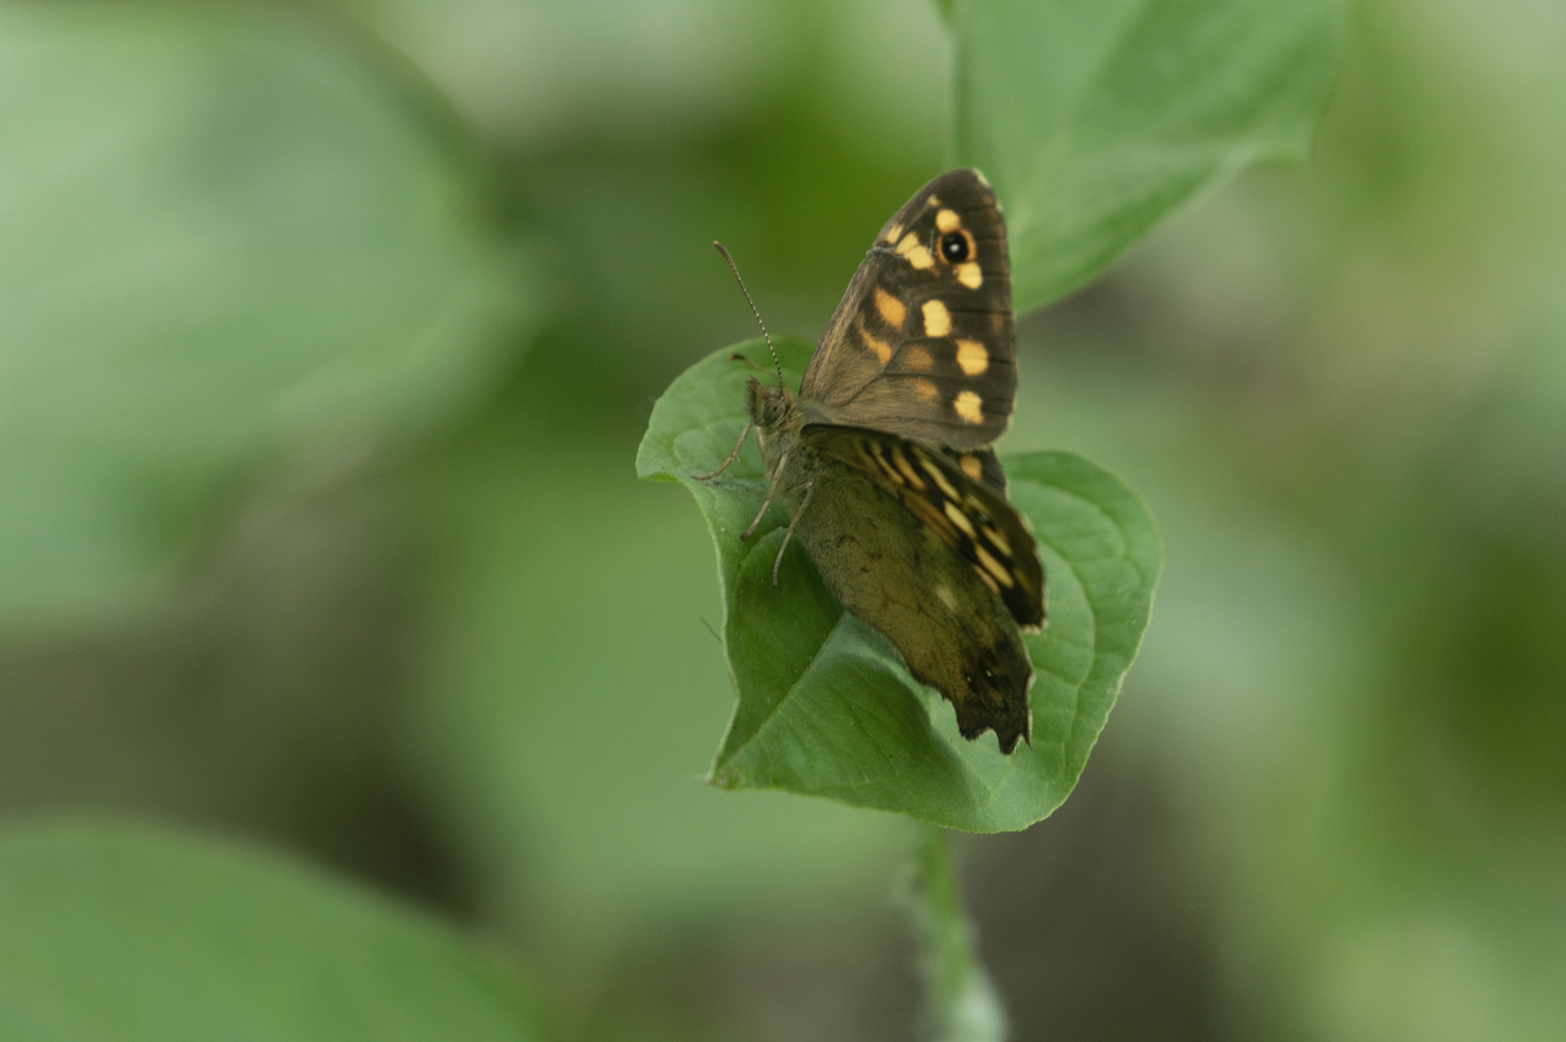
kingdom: Animalia
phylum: Arthropoda
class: Insecta
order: Lepidoptera
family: Nymphalidae
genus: Pararge
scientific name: Pararge aegeria
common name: Speckled wood
